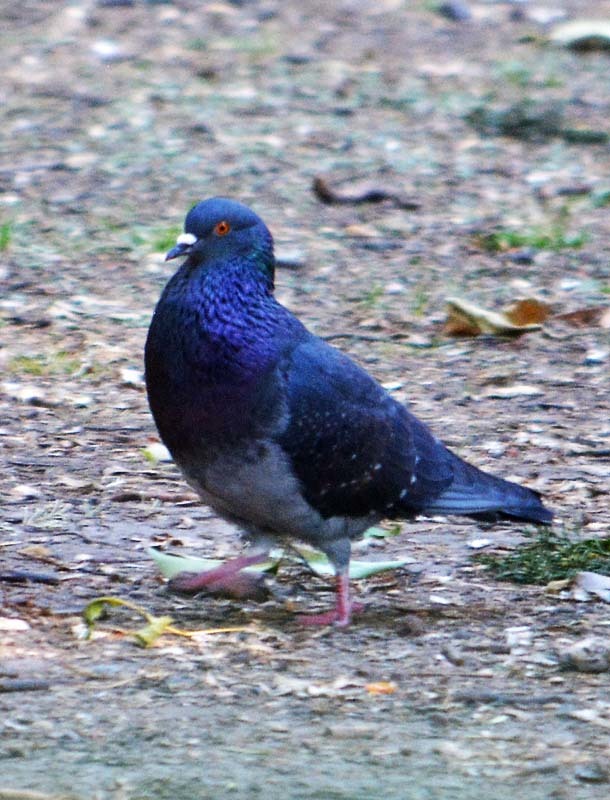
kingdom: Animalia
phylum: Chordata
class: Aves
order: Columbiformes
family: Columbidae
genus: Columba
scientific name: Columba livia
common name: Rock pigeon
